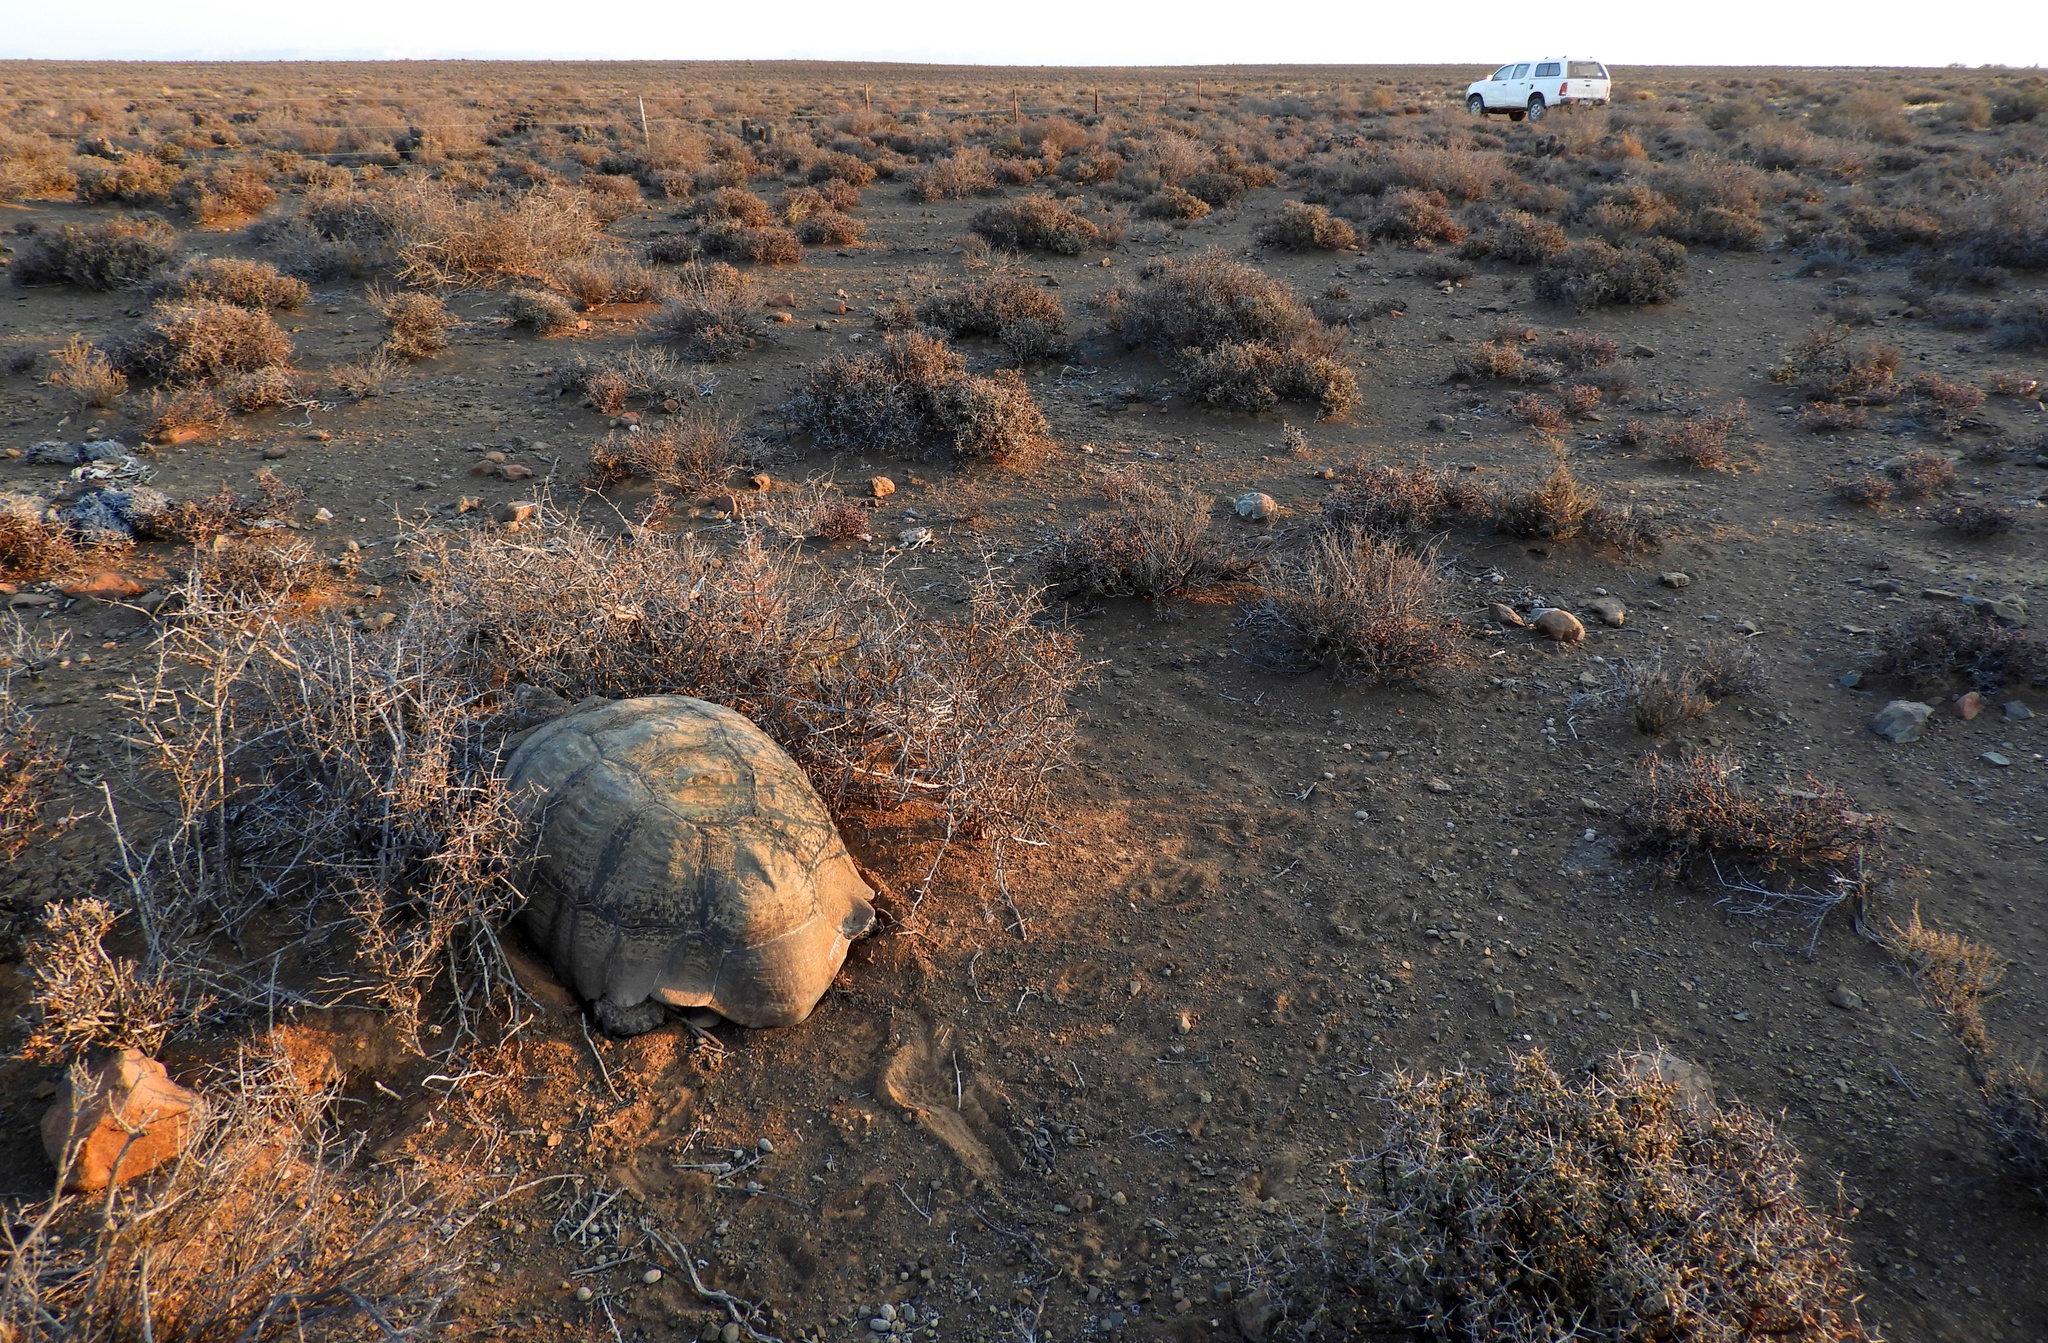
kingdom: Animalia
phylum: Chordata
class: Testudines
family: Testudinidae
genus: Stigmochelys
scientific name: Stigmochelys pardalis
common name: Leopard tortoise
